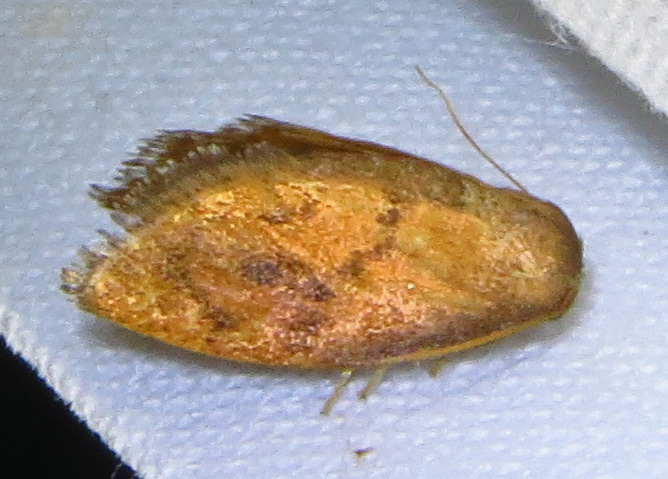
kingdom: Animalia
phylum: Arthropoda
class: Insecta
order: Lepidoptera
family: Limacodidae
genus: Heterogenea
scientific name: Heterogenea shurtleffi
